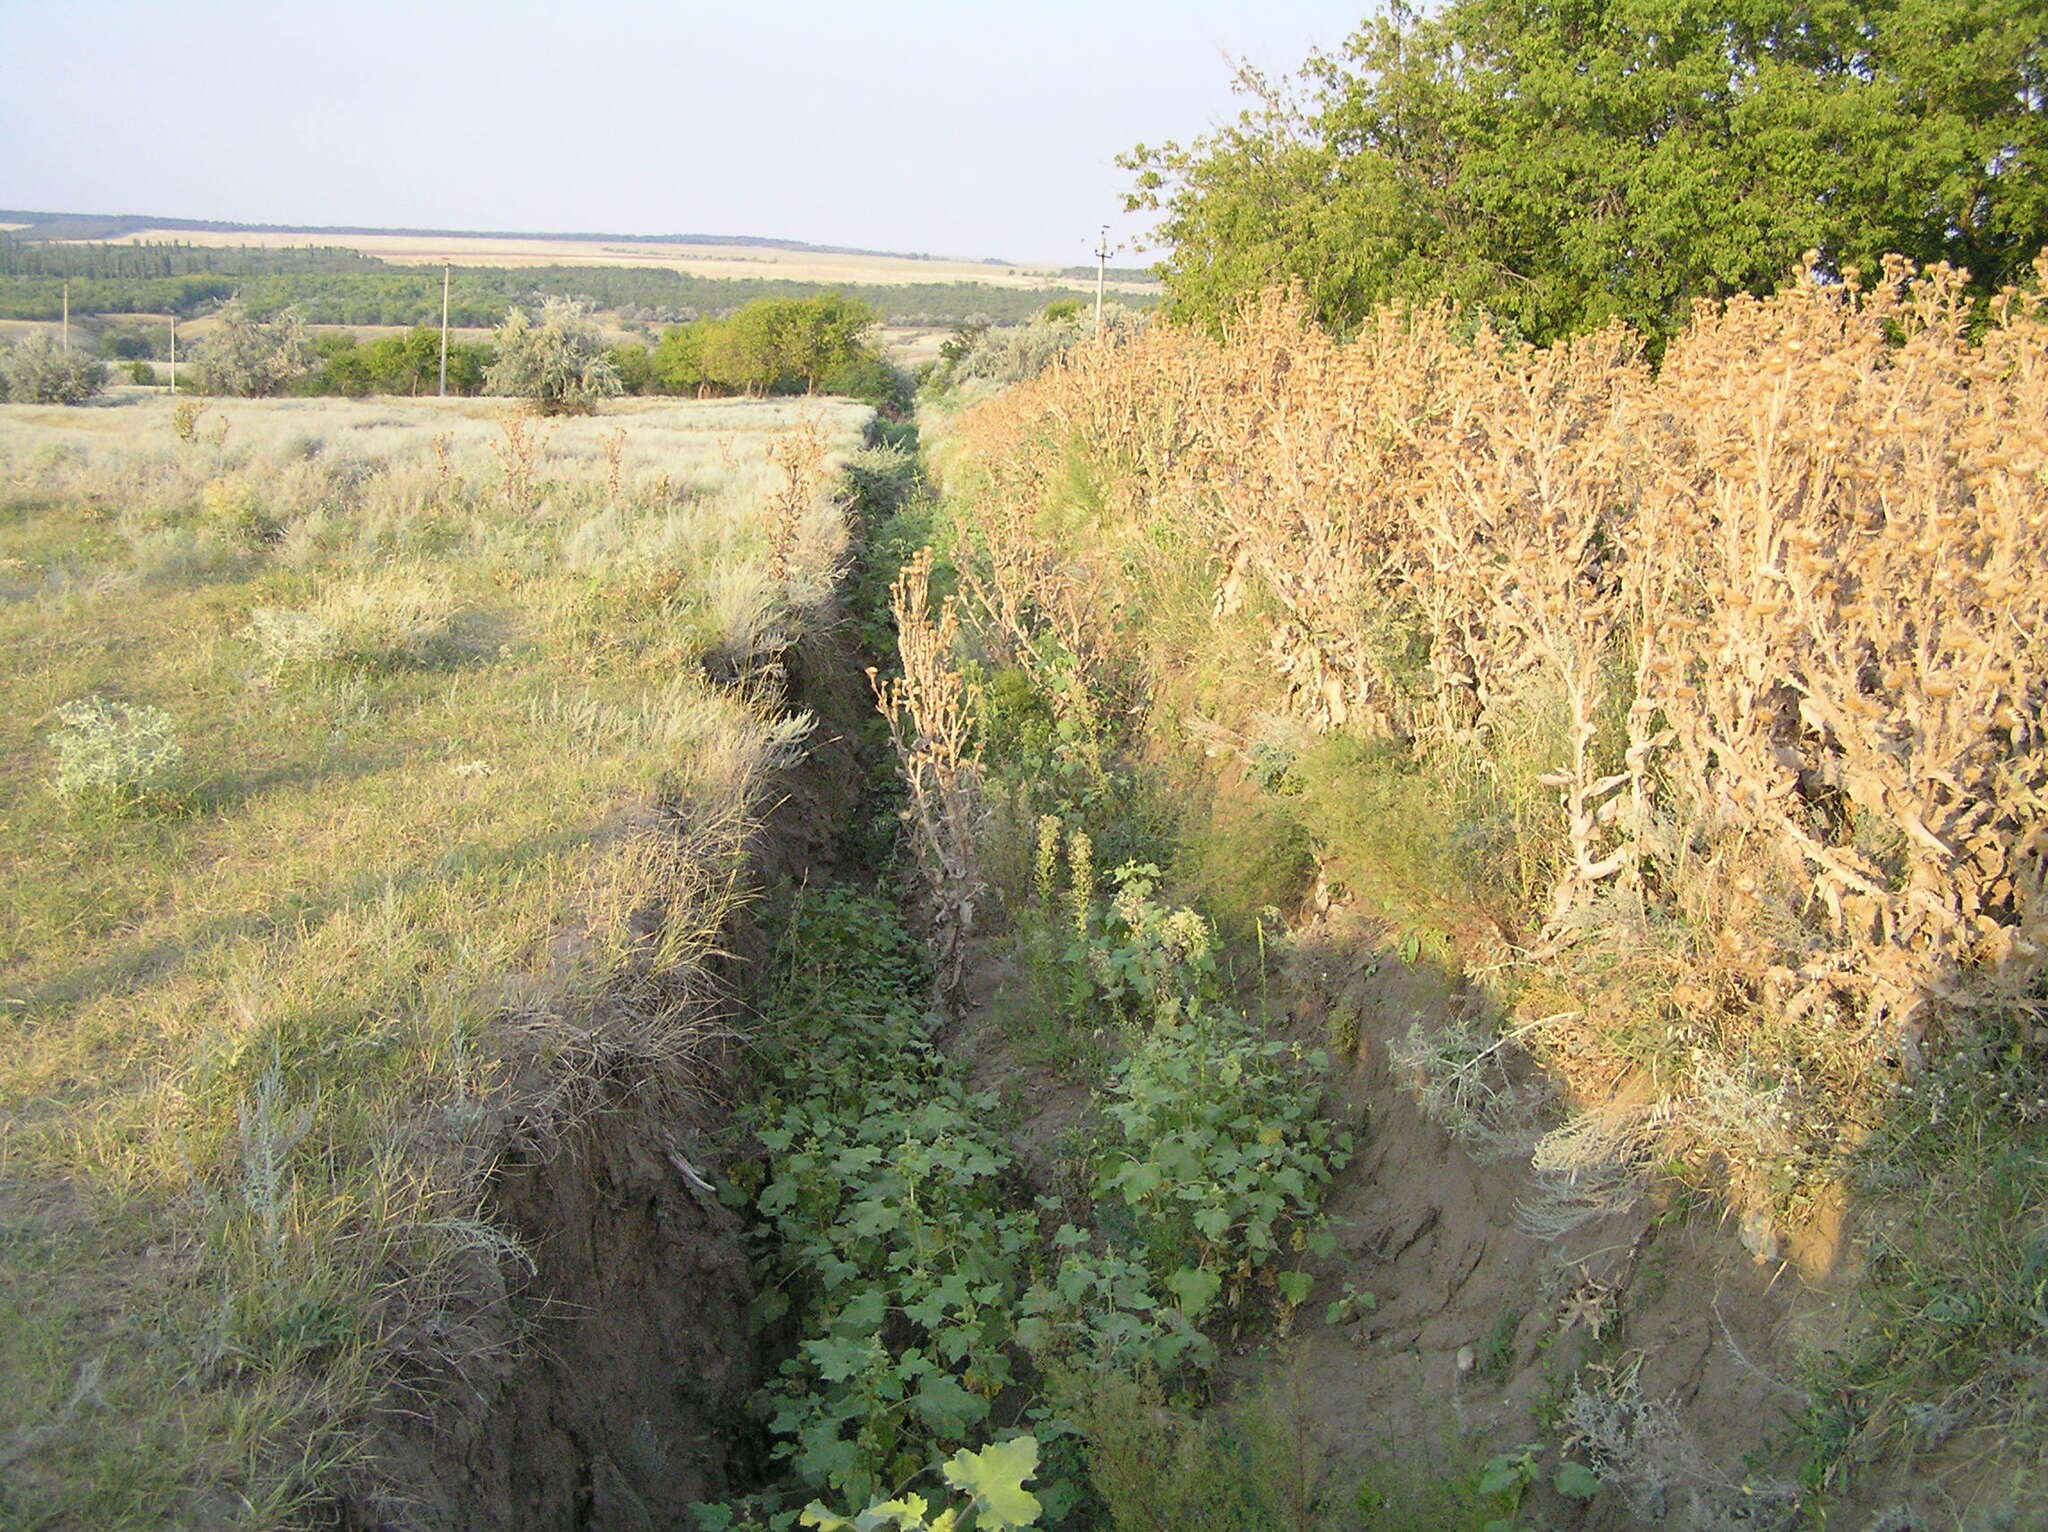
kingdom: Plantae
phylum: Tracheophyta
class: Magnoliopsida
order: Asterales
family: Asteraceae
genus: Xanthium
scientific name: Xanthium orientale
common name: Californian burr
